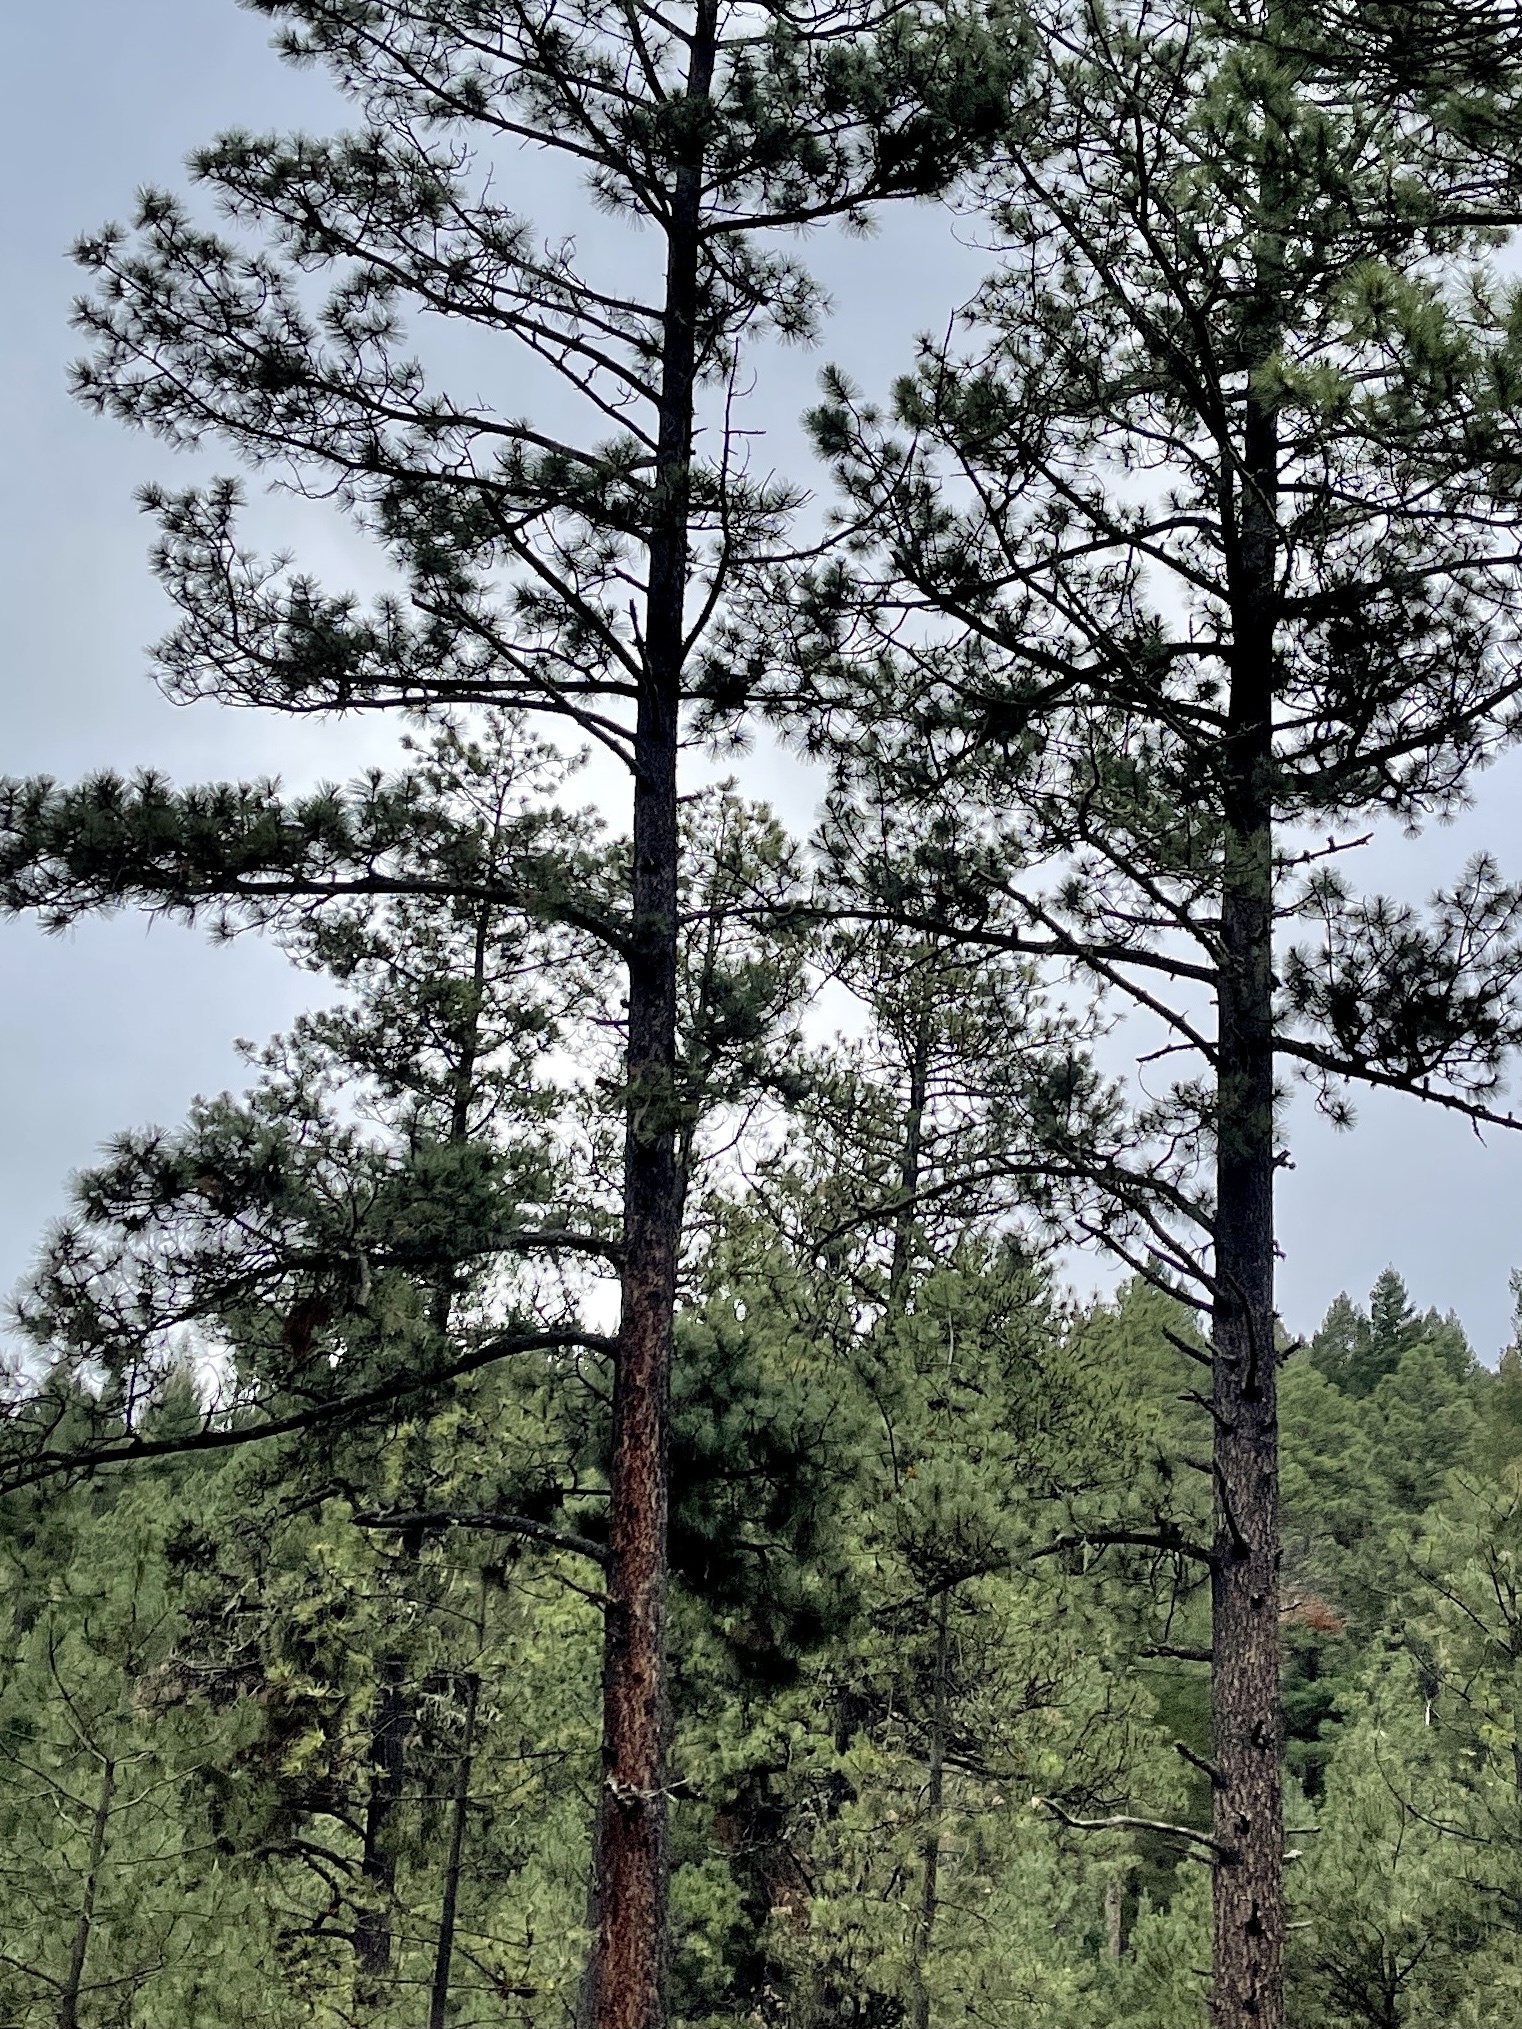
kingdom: Plantae
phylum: Tracheophyta
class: Pinopsida
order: Pinales
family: Pinaceae
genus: Pinus
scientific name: Pinus ponderosa
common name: Western yellow-pine
